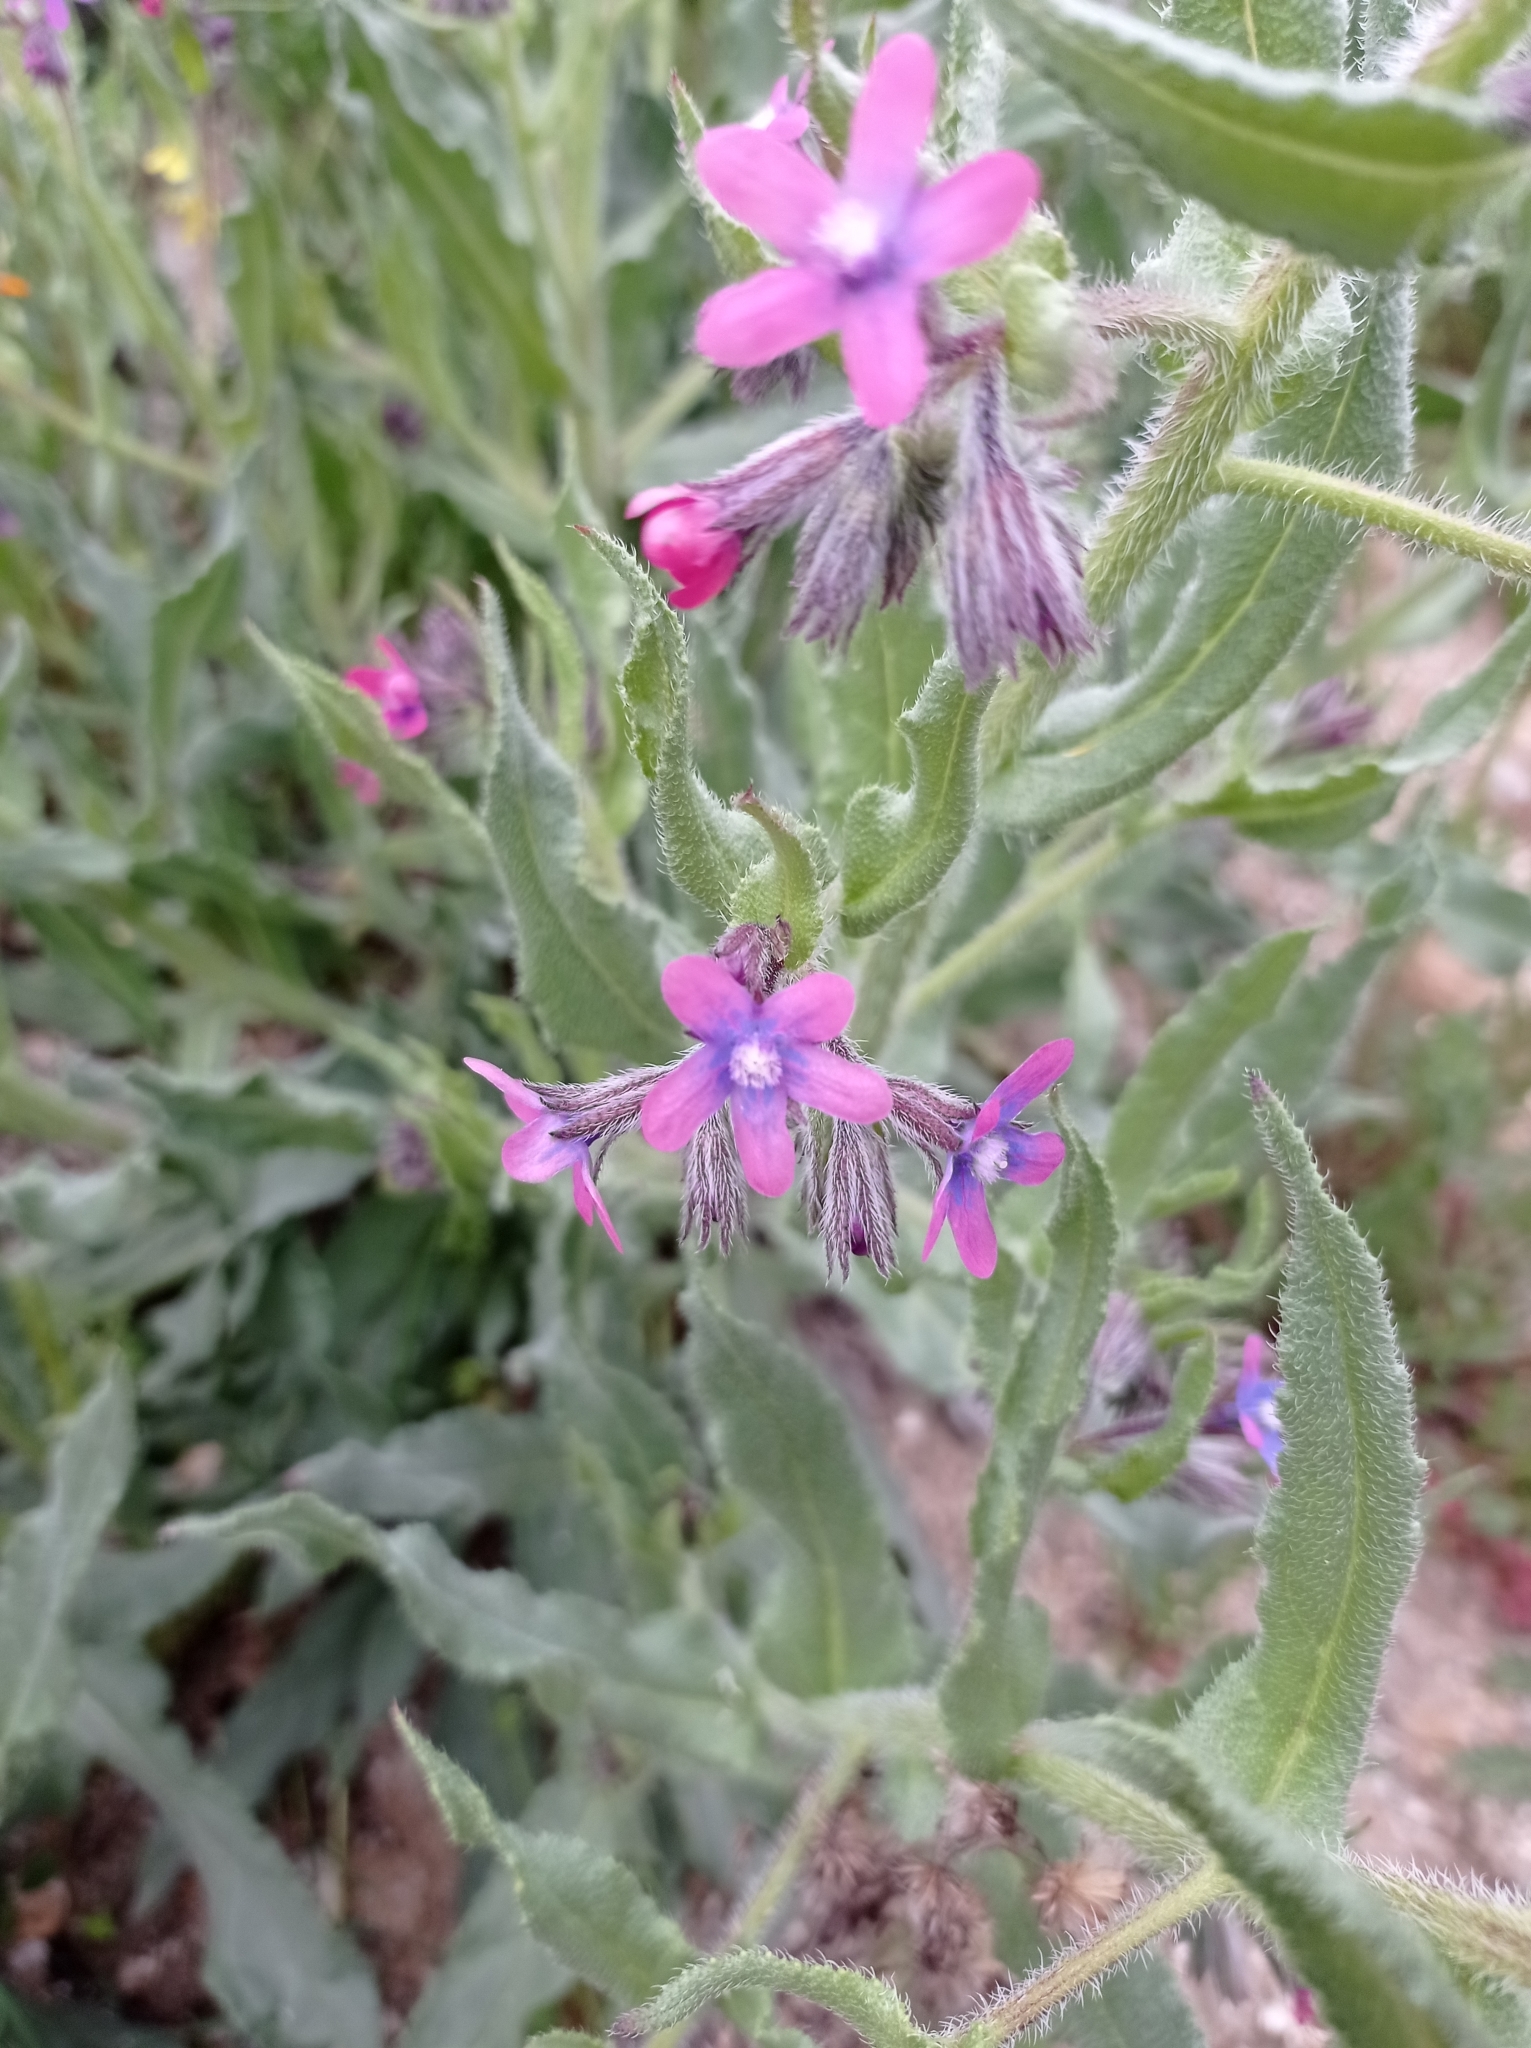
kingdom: Plantae
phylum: Tracheophyta
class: Magnoliopsida
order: Boraginales
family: Boraginaceae
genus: Anchusa
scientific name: Anchusa azurea
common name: Garden anchusa
